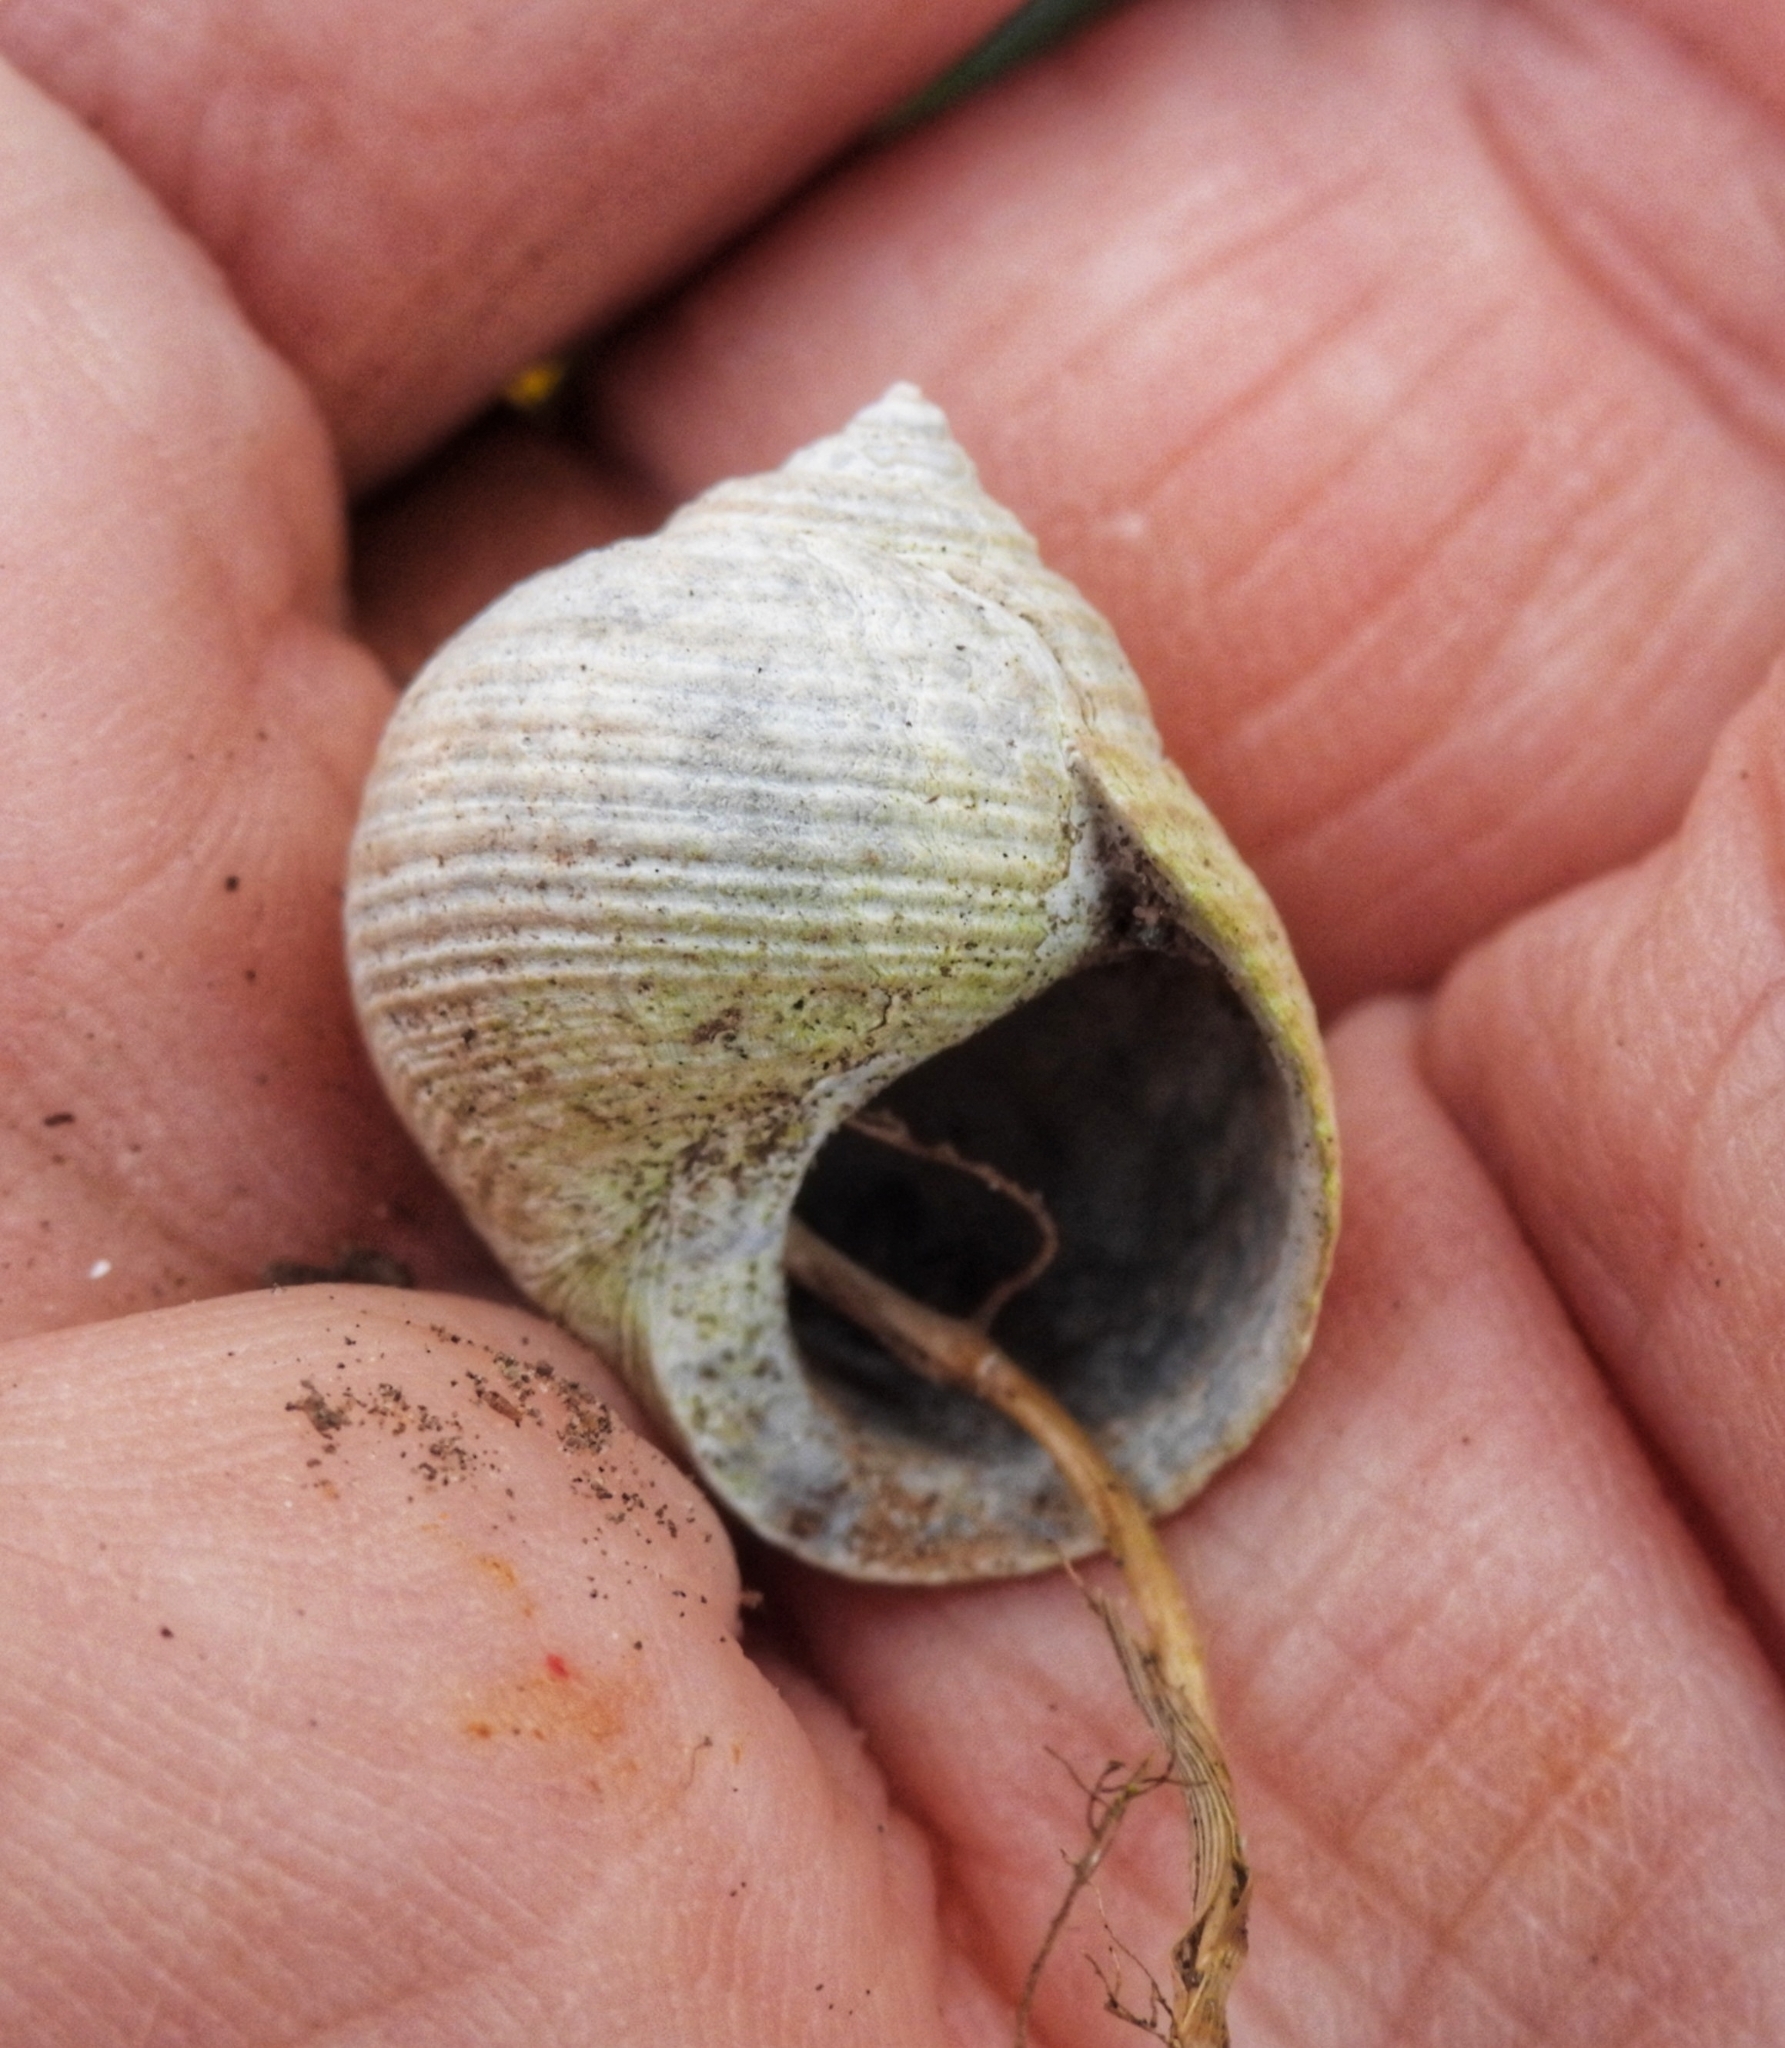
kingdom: Animalia
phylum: Mollusca
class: Gastropoda
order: Littorinimorpha
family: Littorinidae
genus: Littorina
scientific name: Littorina littorea
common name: Common periwinkle
